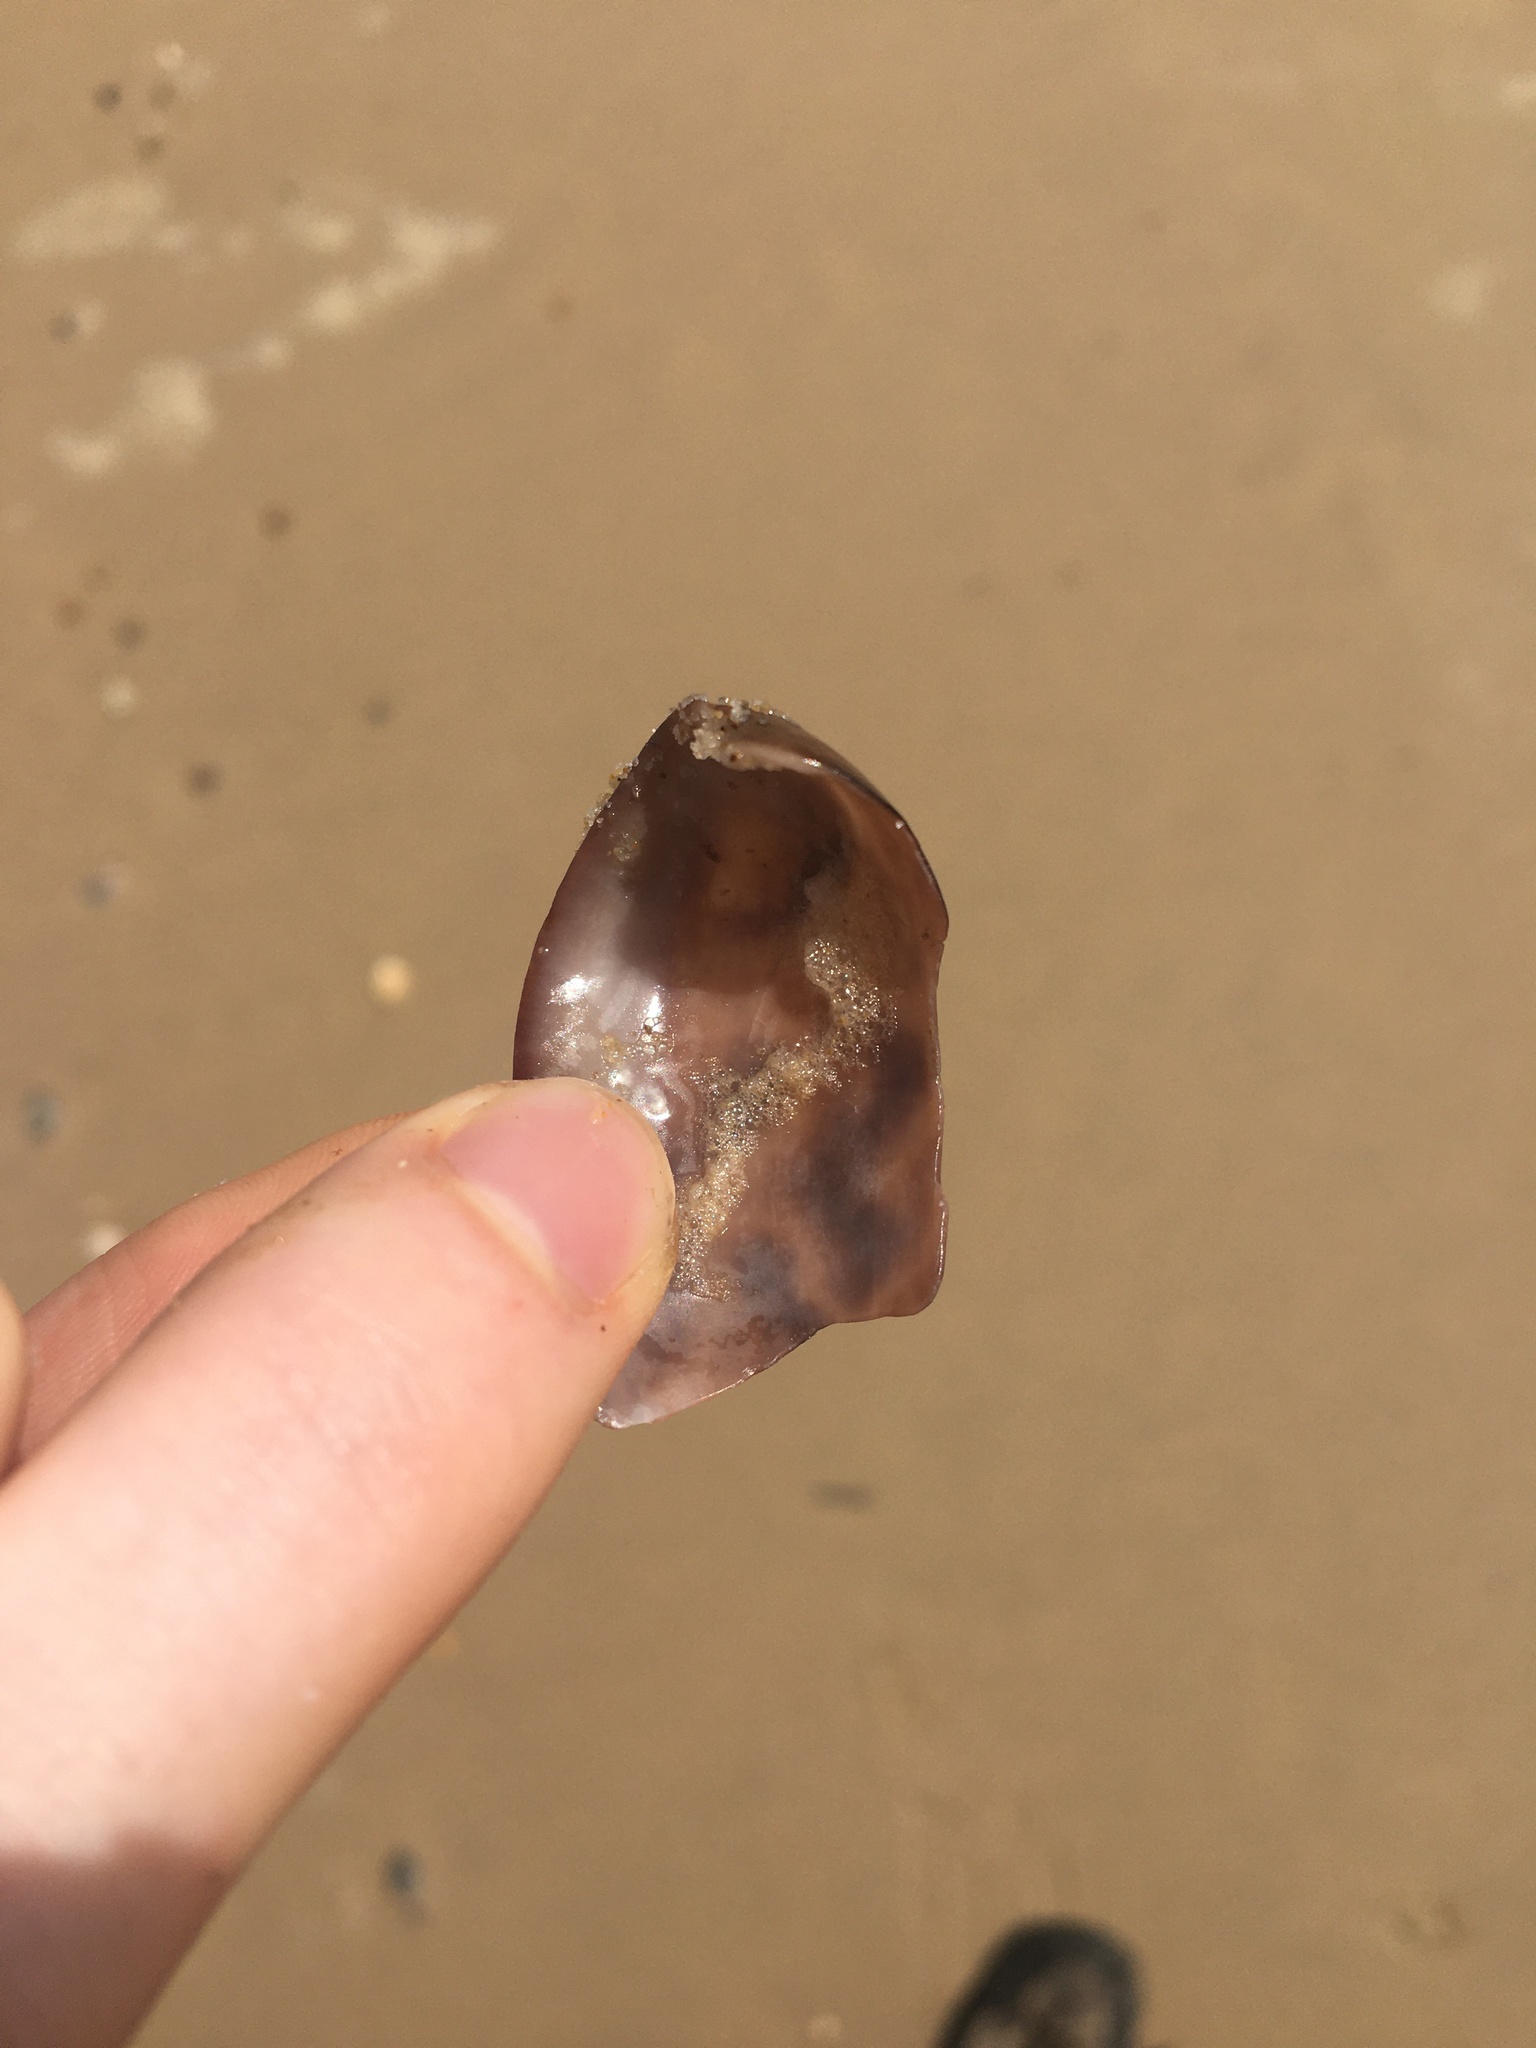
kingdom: Animalia
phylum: Mollusca
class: Gastropoda
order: Cephalaspidea
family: Bullidae
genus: Bulla
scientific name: Bulla quoyii
